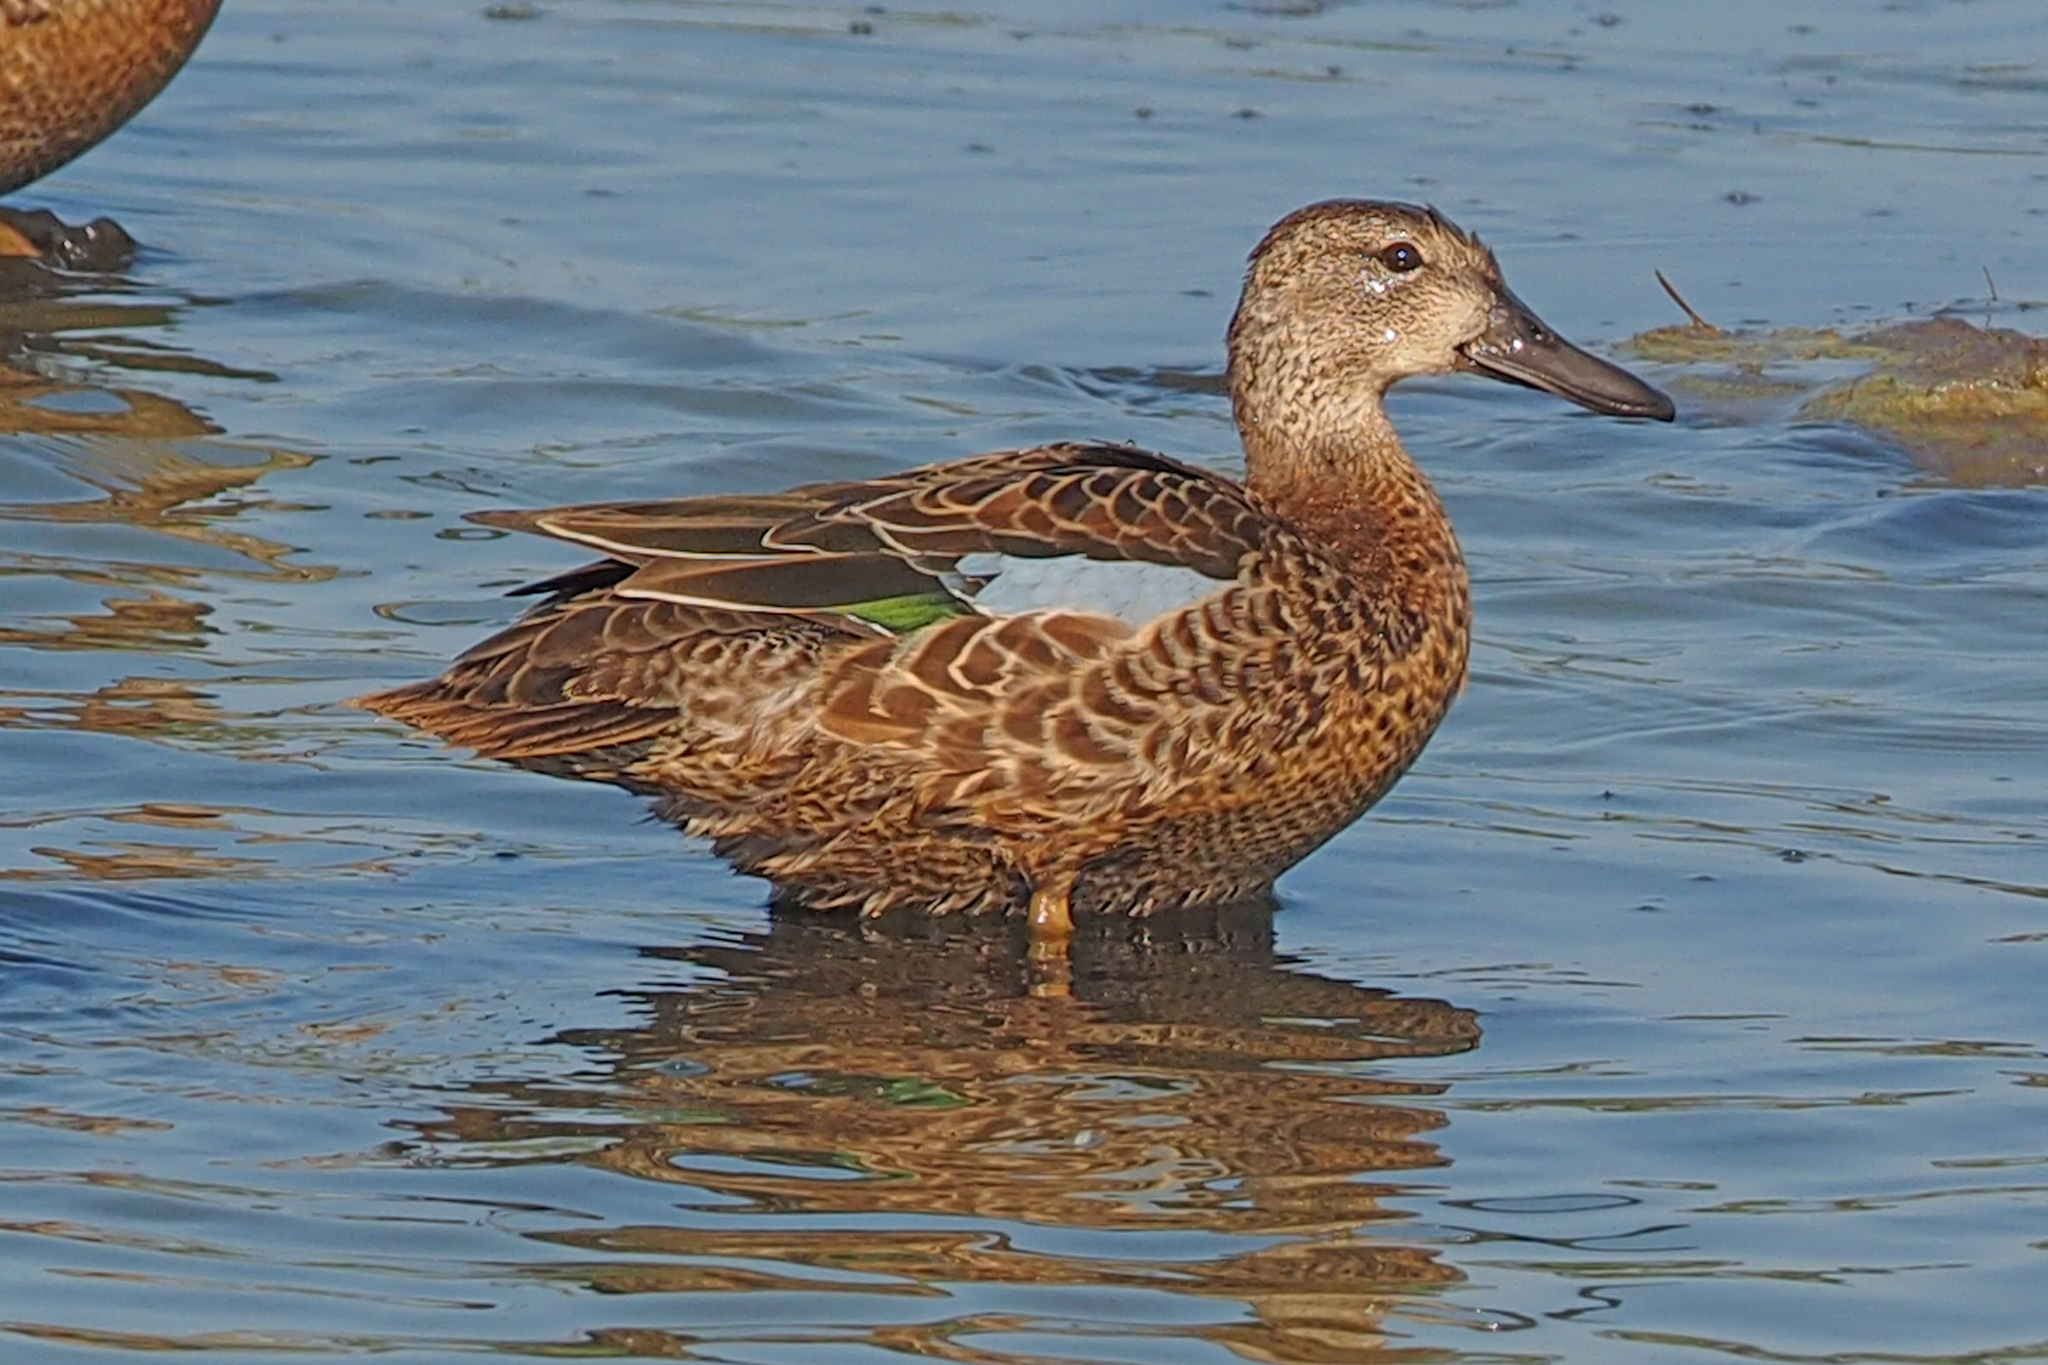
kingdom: Animalia
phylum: Chordata
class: Aves
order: Anseriformes
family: Anatidae
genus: Spatula
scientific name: Spatula discors
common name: Blue-winged teal
